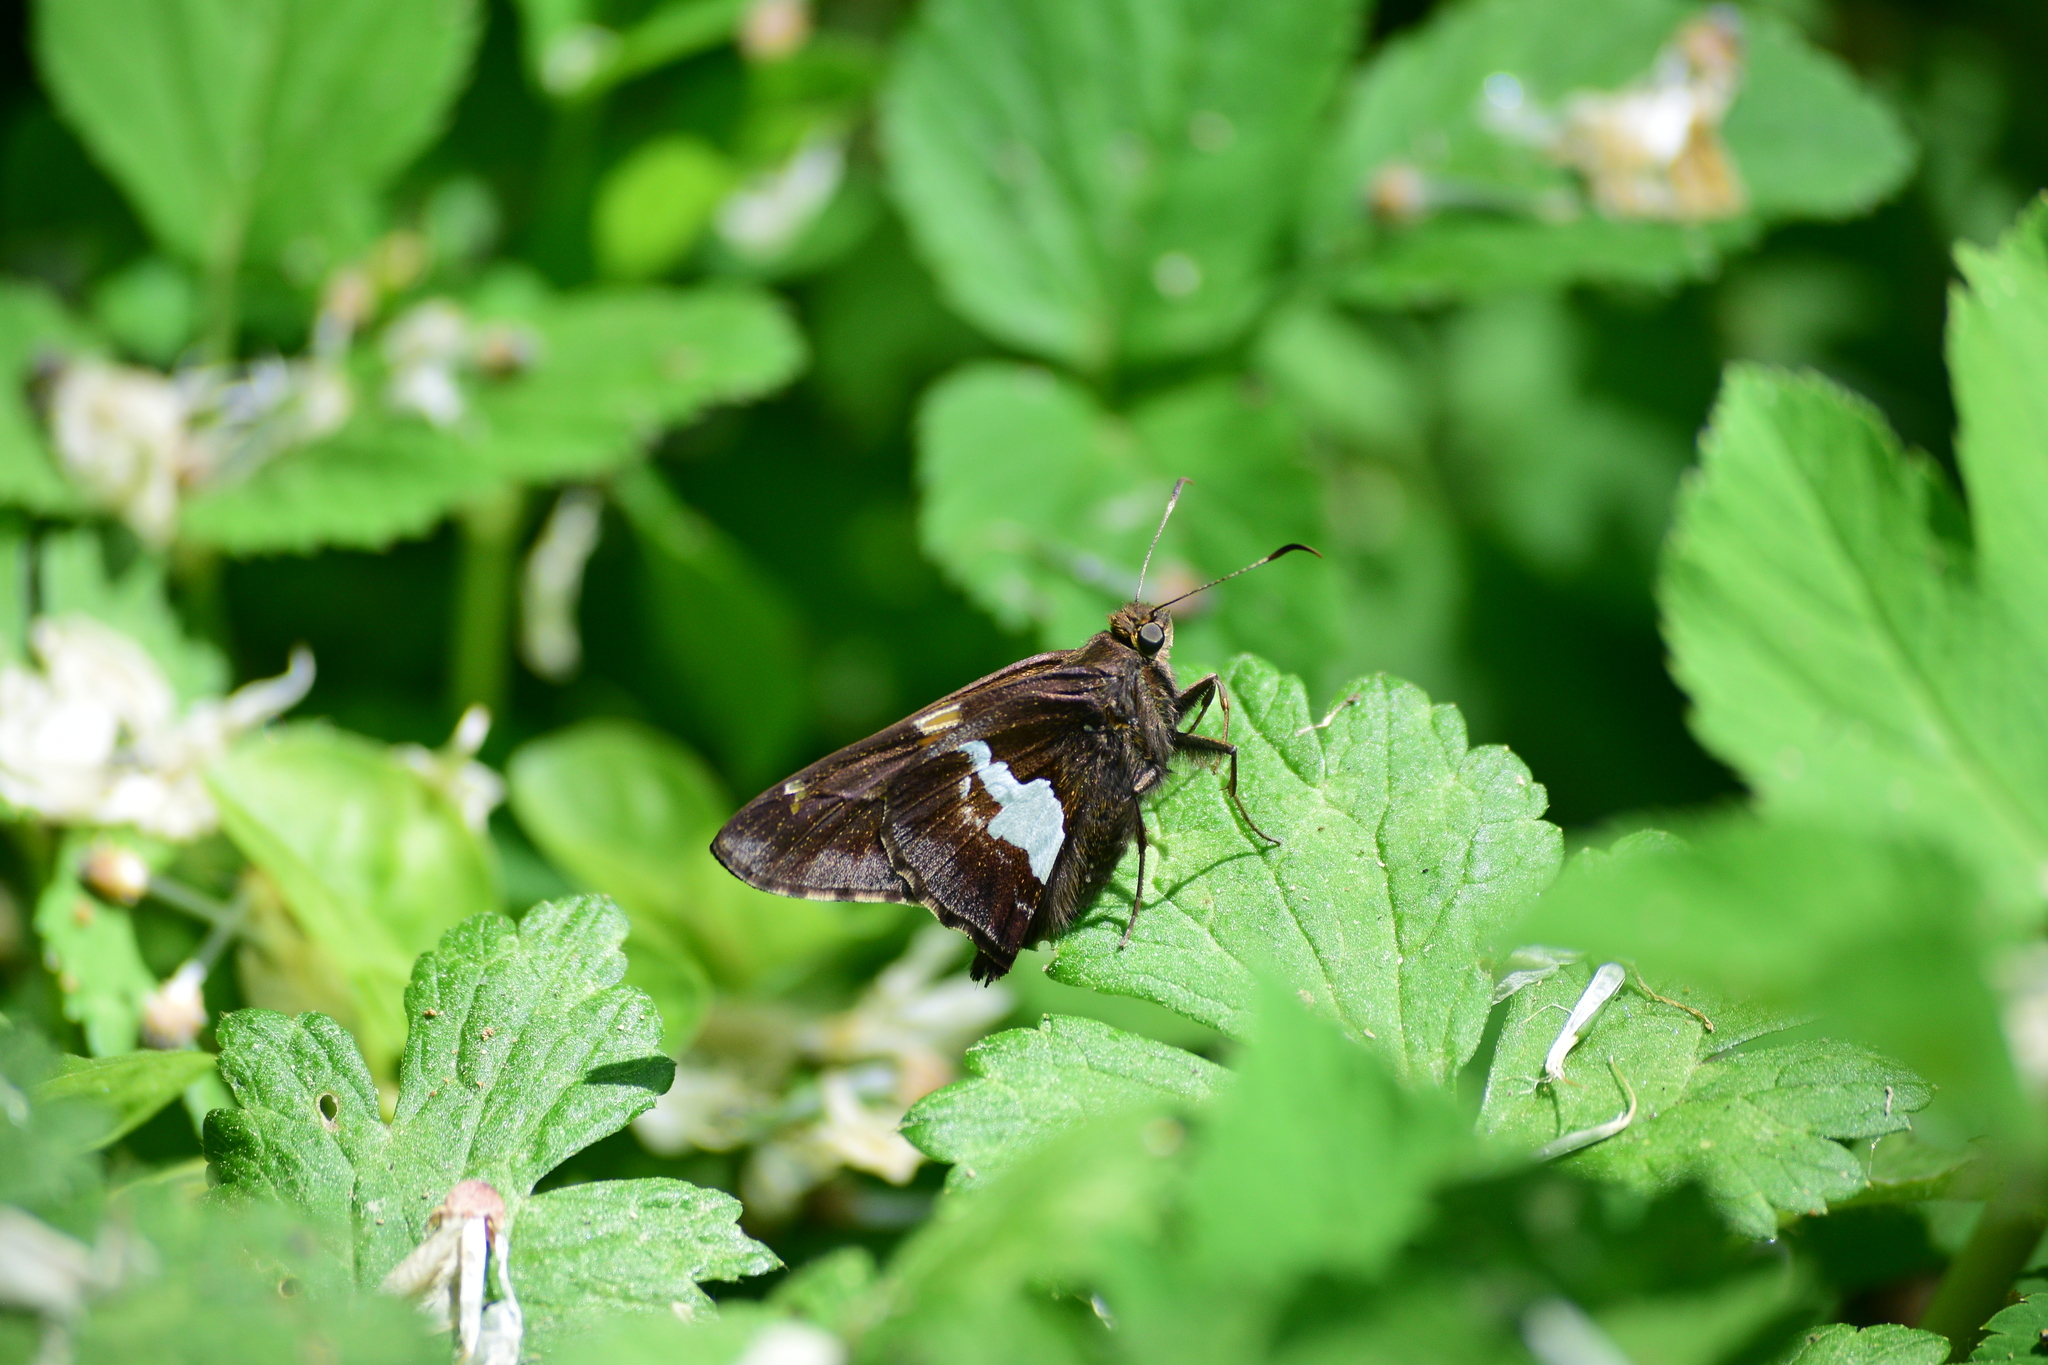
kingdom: Animalia
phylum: Arthropoda
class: Insecta
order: Lepidoptera
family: Hesperiidae
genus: Epargyreus
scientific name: Epargyreus clarus
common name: Silver-spotted skipper
